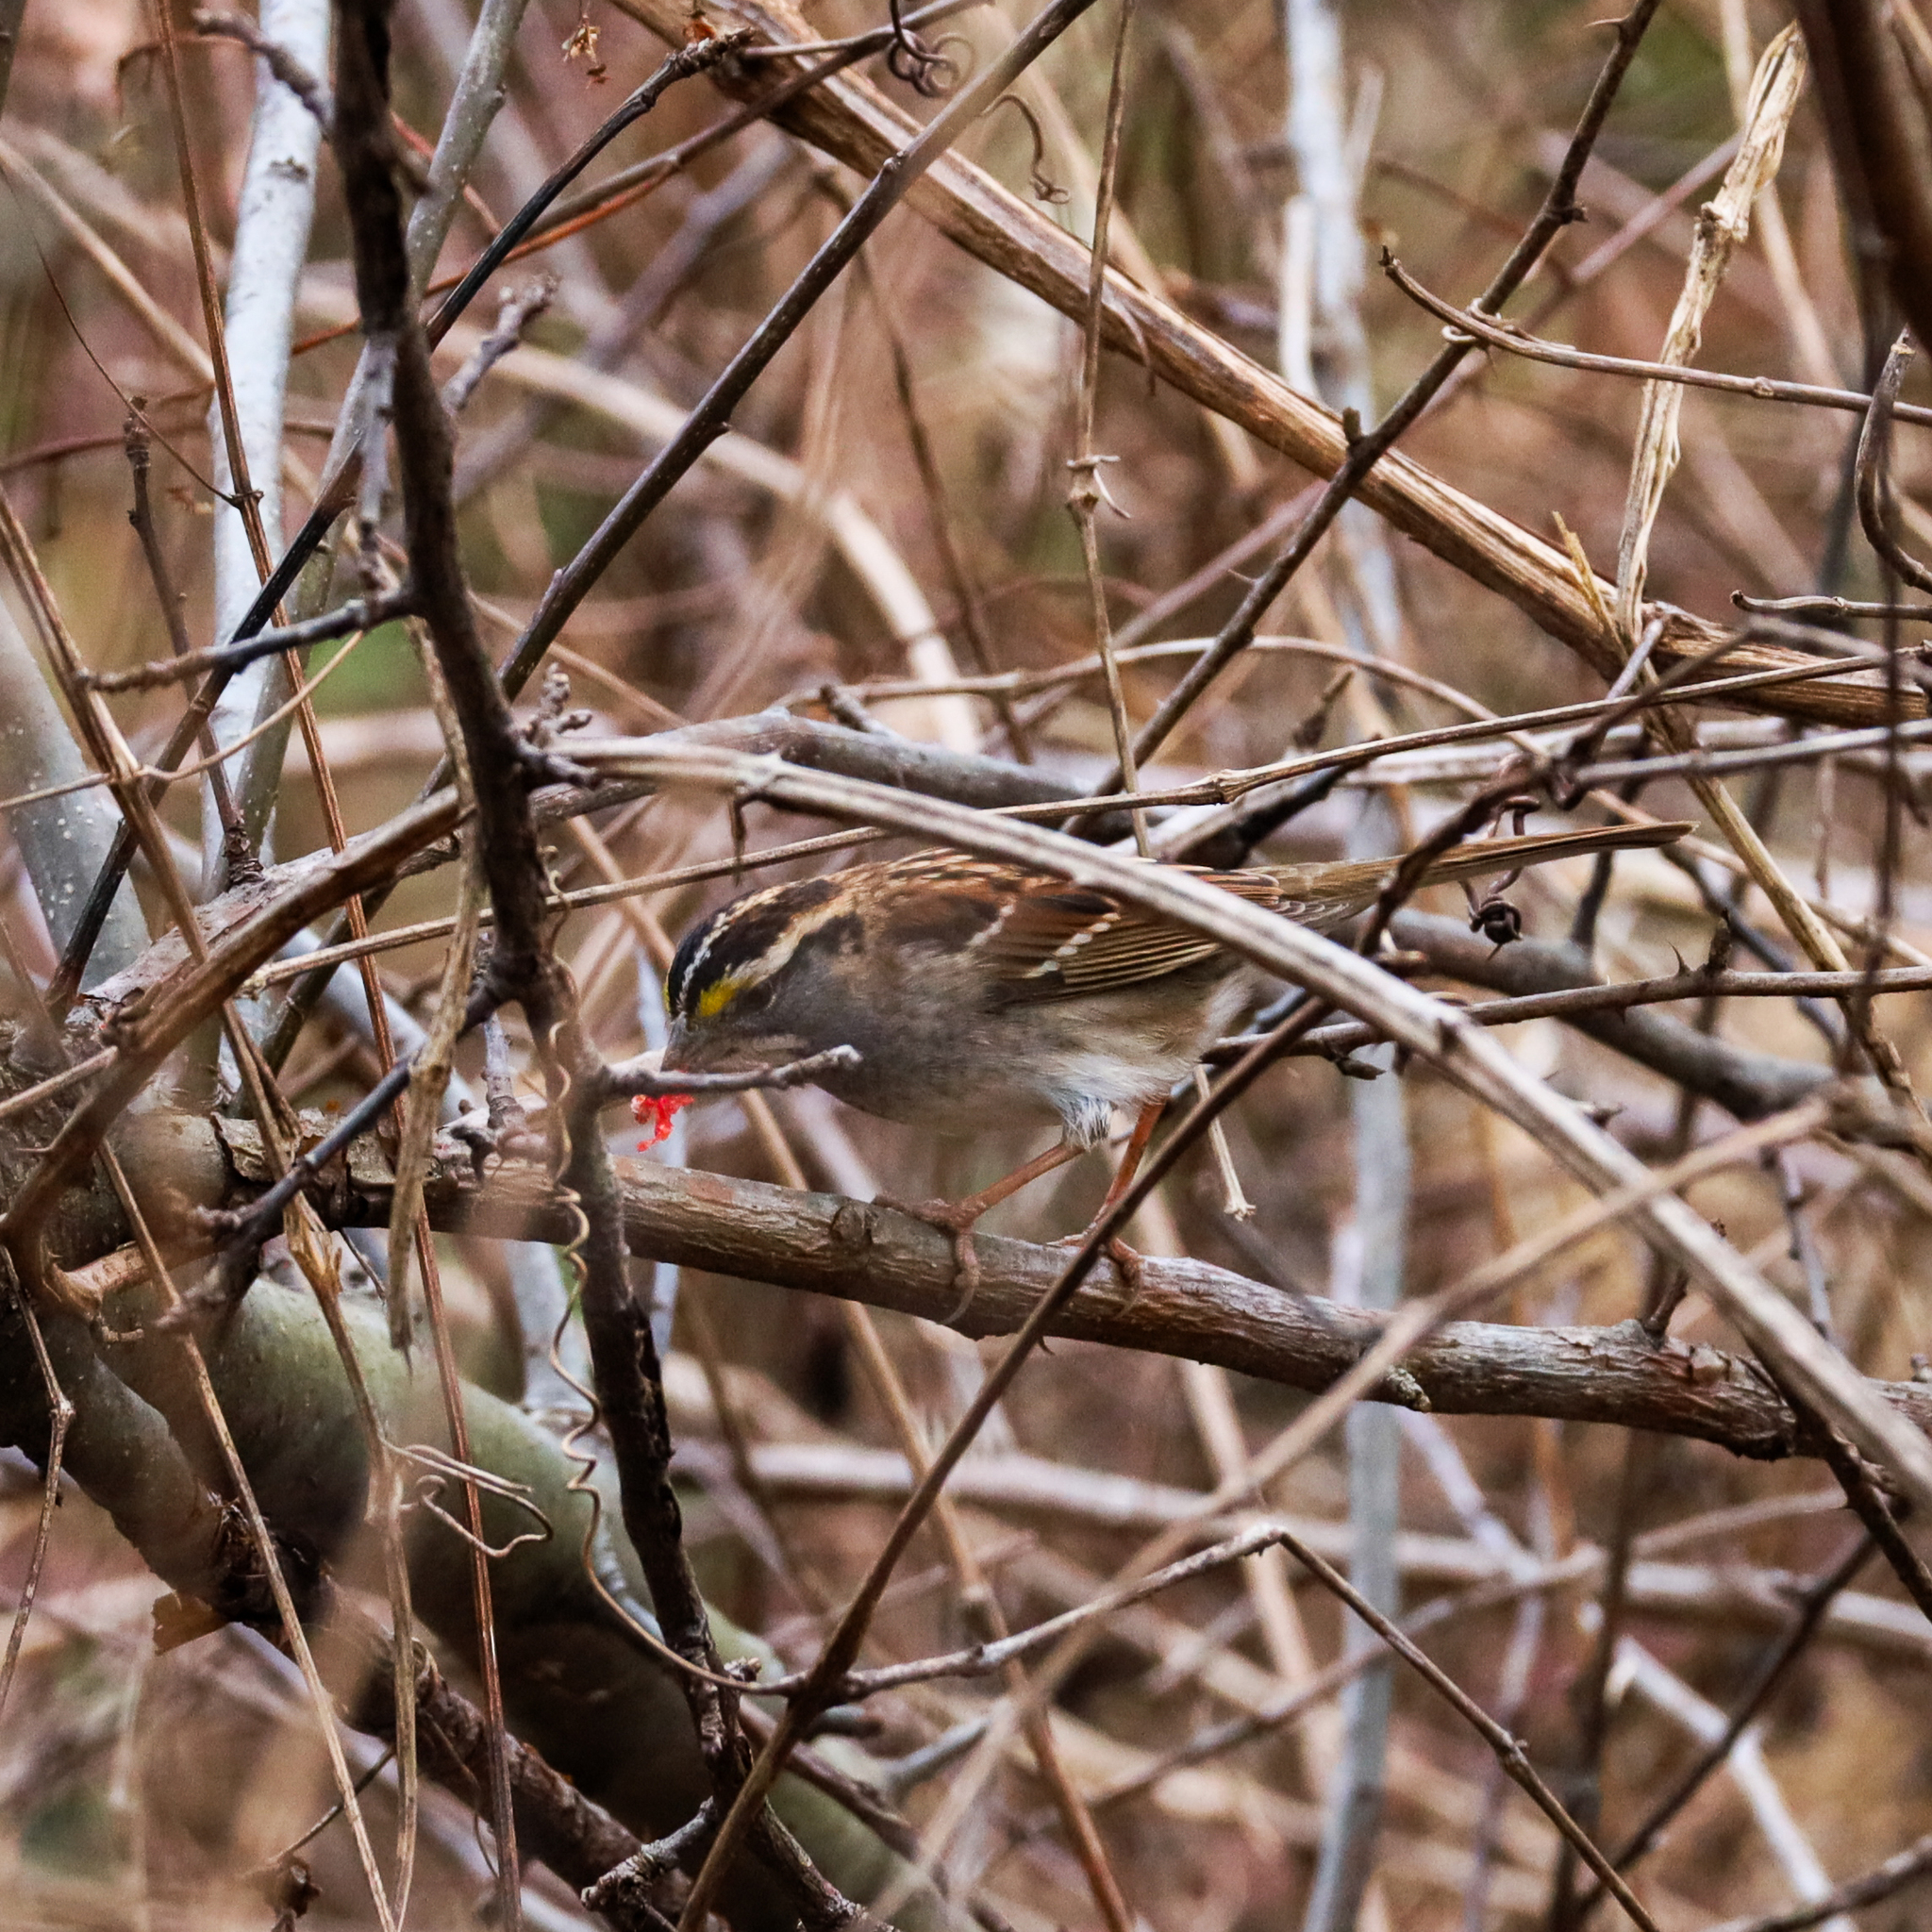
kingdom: Animalia
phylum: Chordata
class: Aves
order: Passeriformes
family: Passerellidae
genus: Zonotrichia
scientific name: Zonotrichia albicollis
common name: White-throated sparrow
